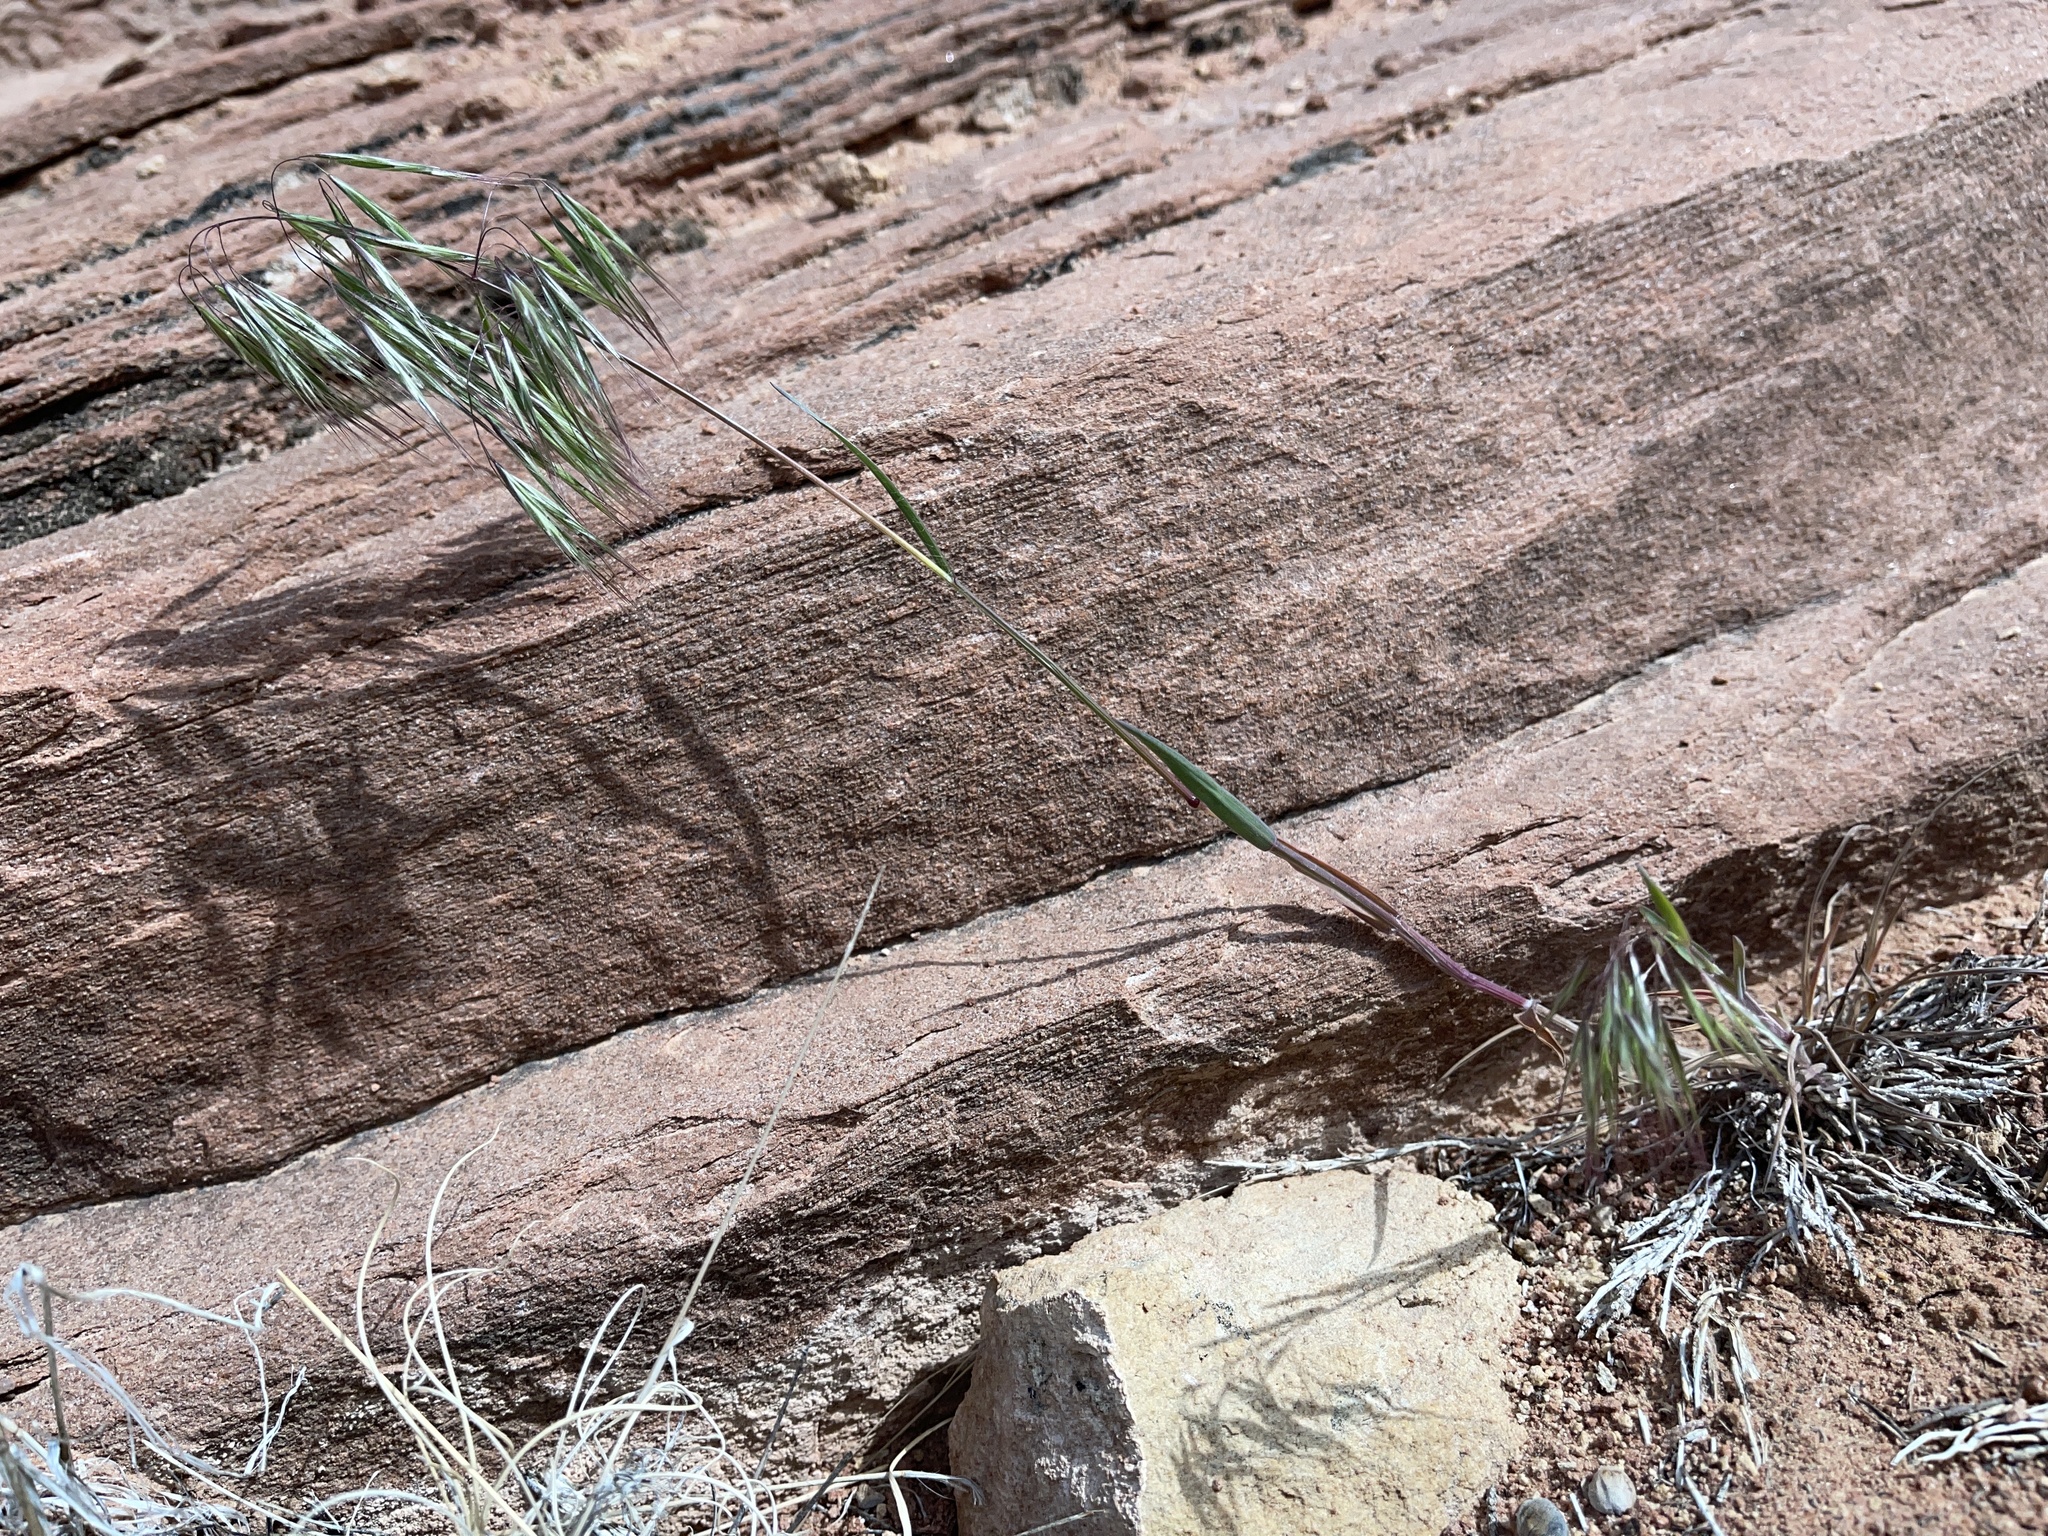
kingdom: Plantae
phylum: Tracheophyta
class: Liliopsida
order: Poales
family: Poaceae
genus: Bromus
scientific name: Bromus tectorum
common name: Cheatgrass
